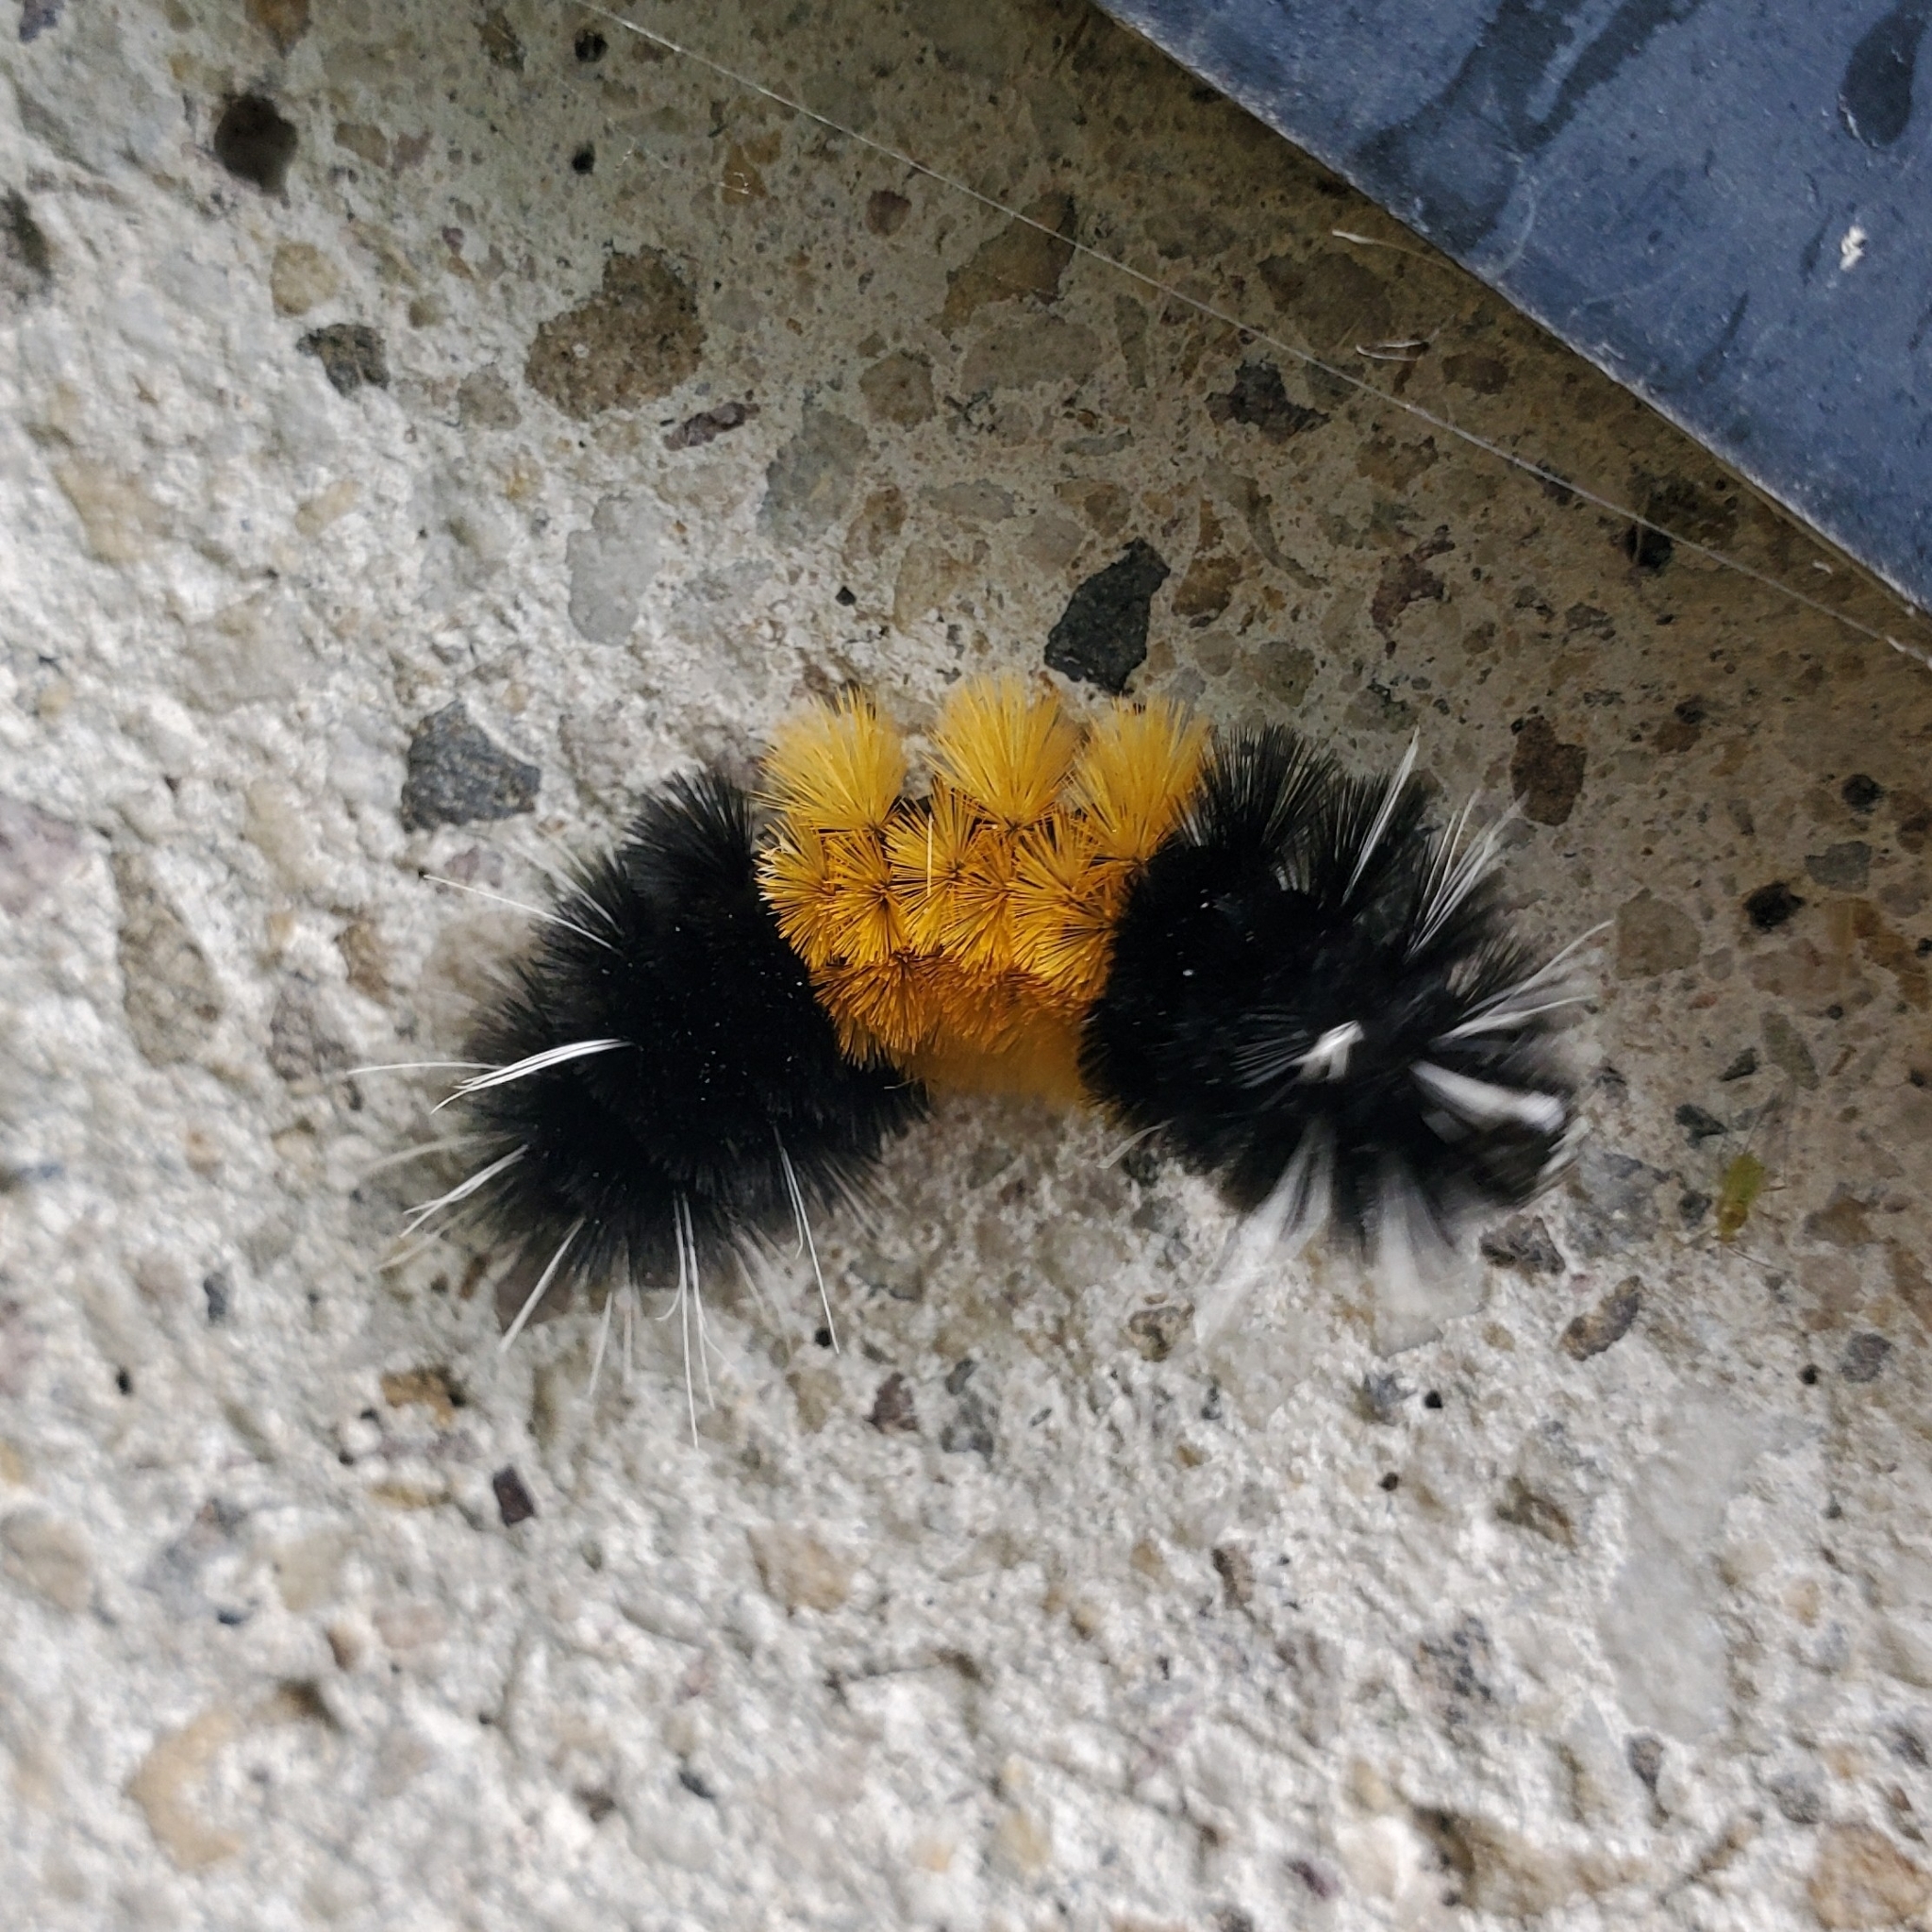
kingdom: Animalia
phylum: Arthropoda
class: Insecta
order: Lepidoptera
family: Erebidae
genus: Lophocampa
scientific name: Lophocampa maculata
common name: Spotted tussock moth
